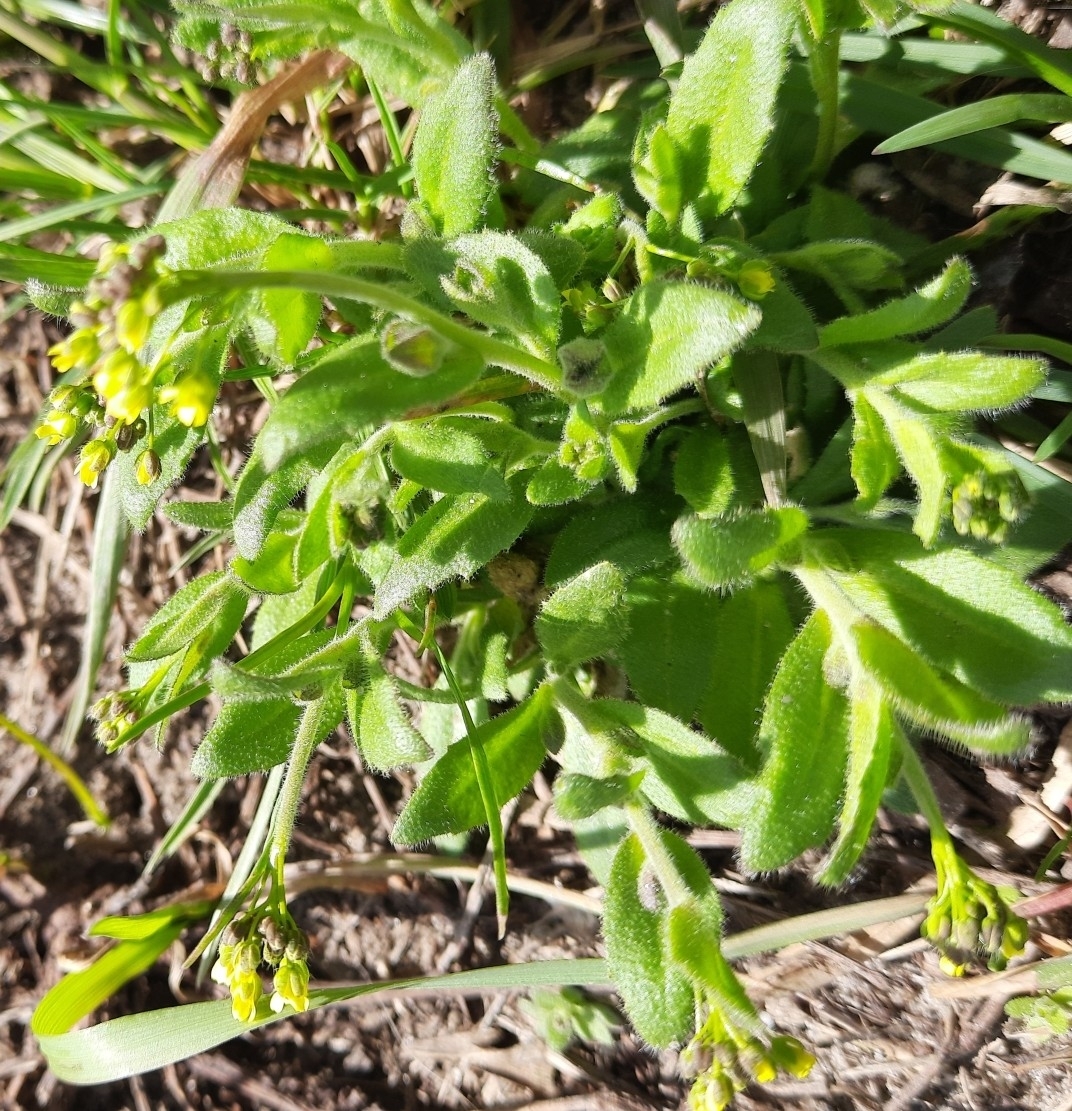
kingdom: Plantae
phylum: Tracheophyta
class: Magnoliopsida
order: Brassicales
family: Brassicaceae
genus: Draba
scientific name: Draba nemorosa
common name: Wood whitlow-grass
